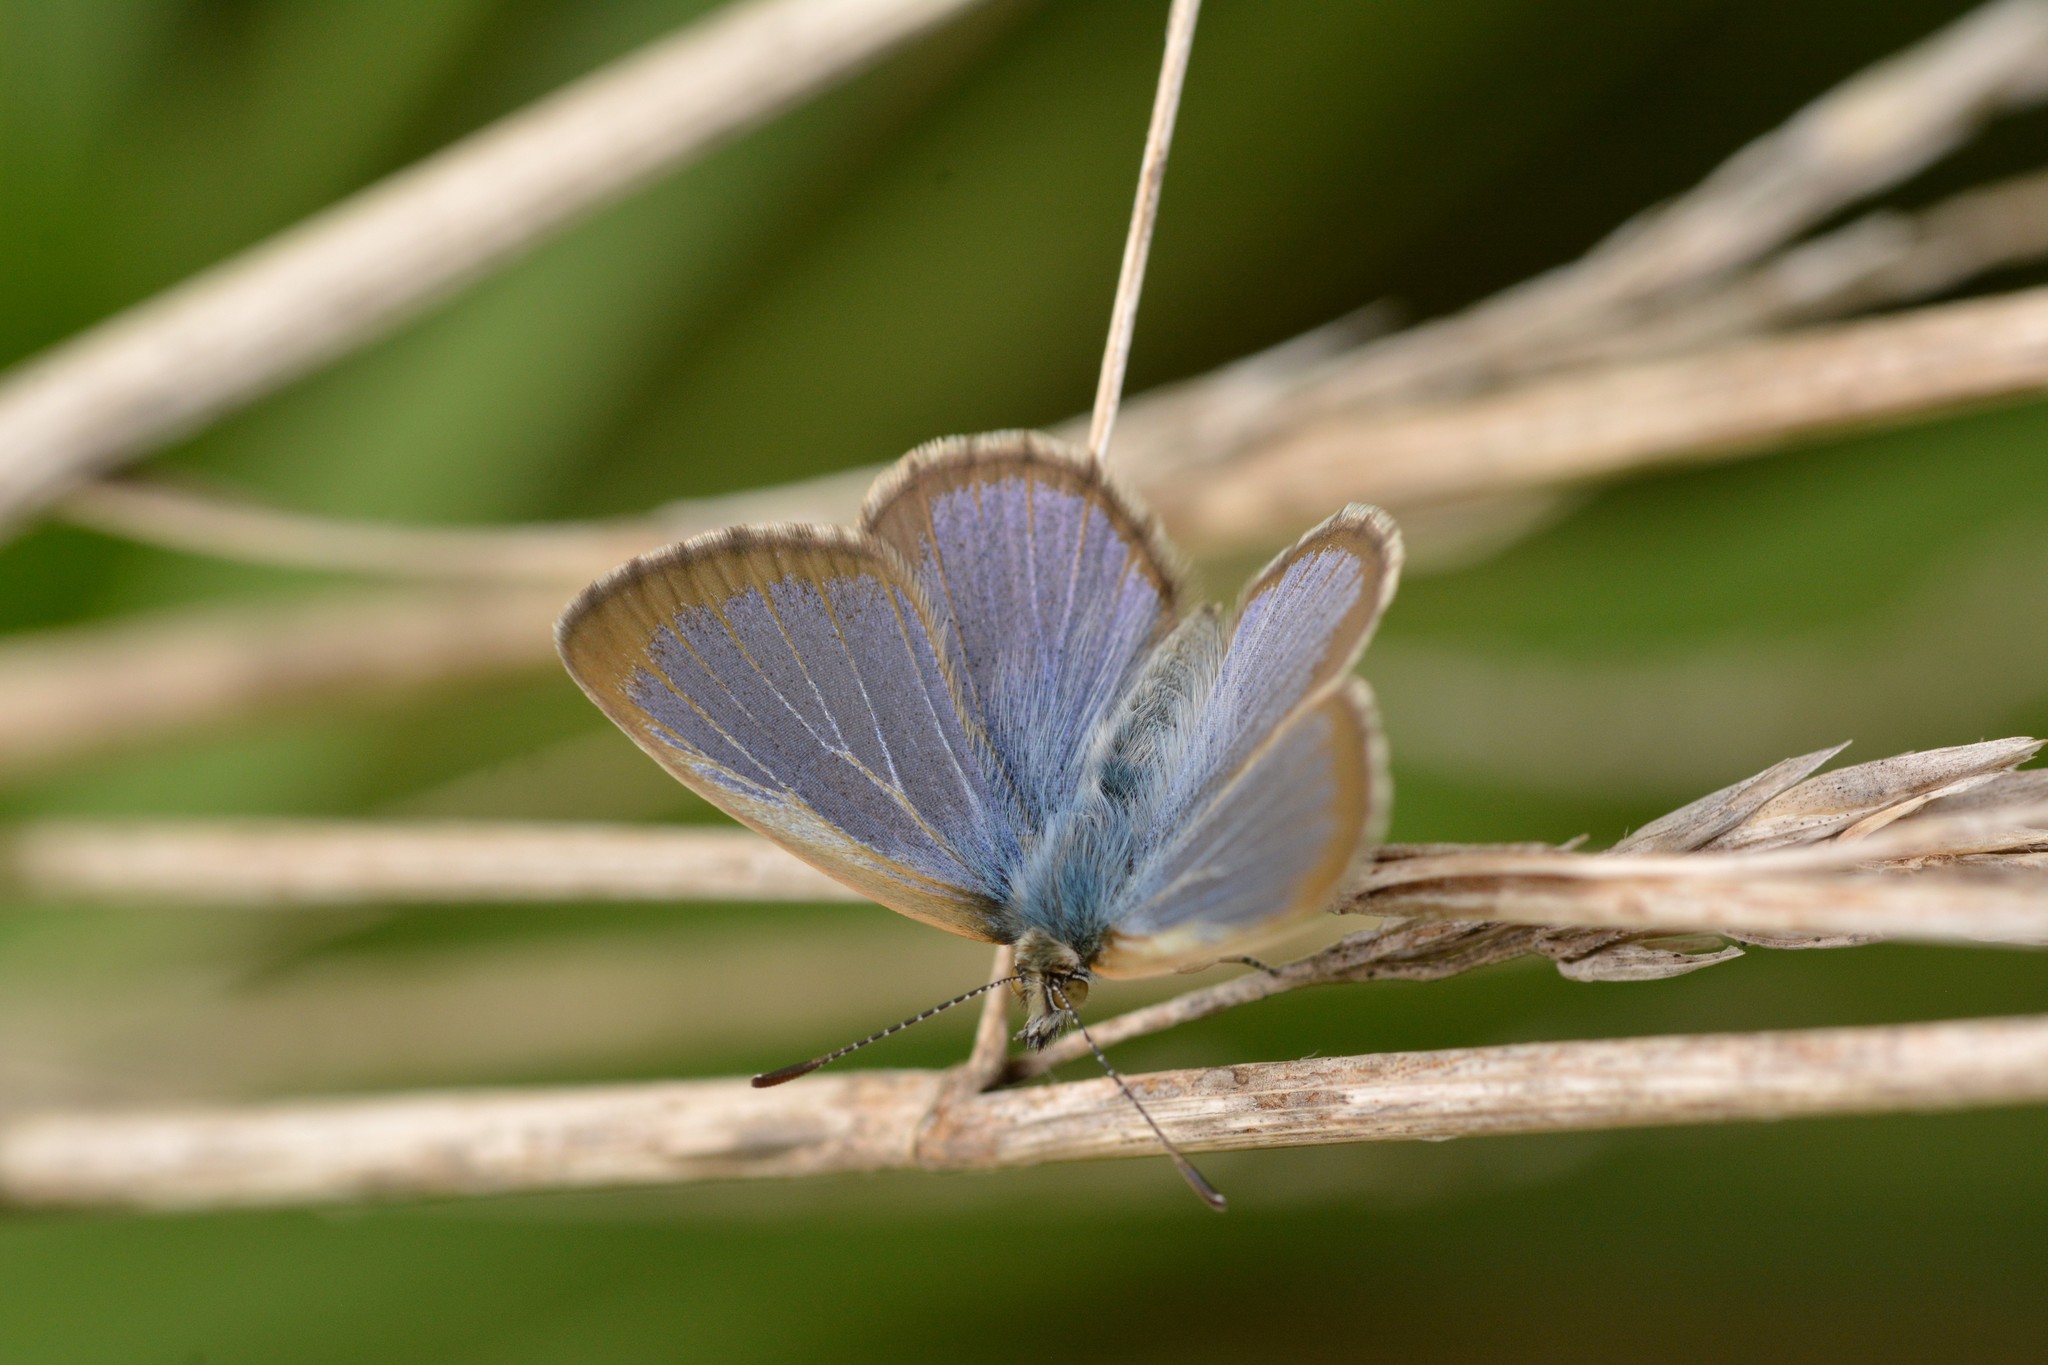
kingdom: Animalia
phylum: Arthropoda
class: Insecta
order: Lepidoptera
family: Lycaenidae
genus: Zizina
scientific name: Zizina otis
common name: Lesser grass blue
